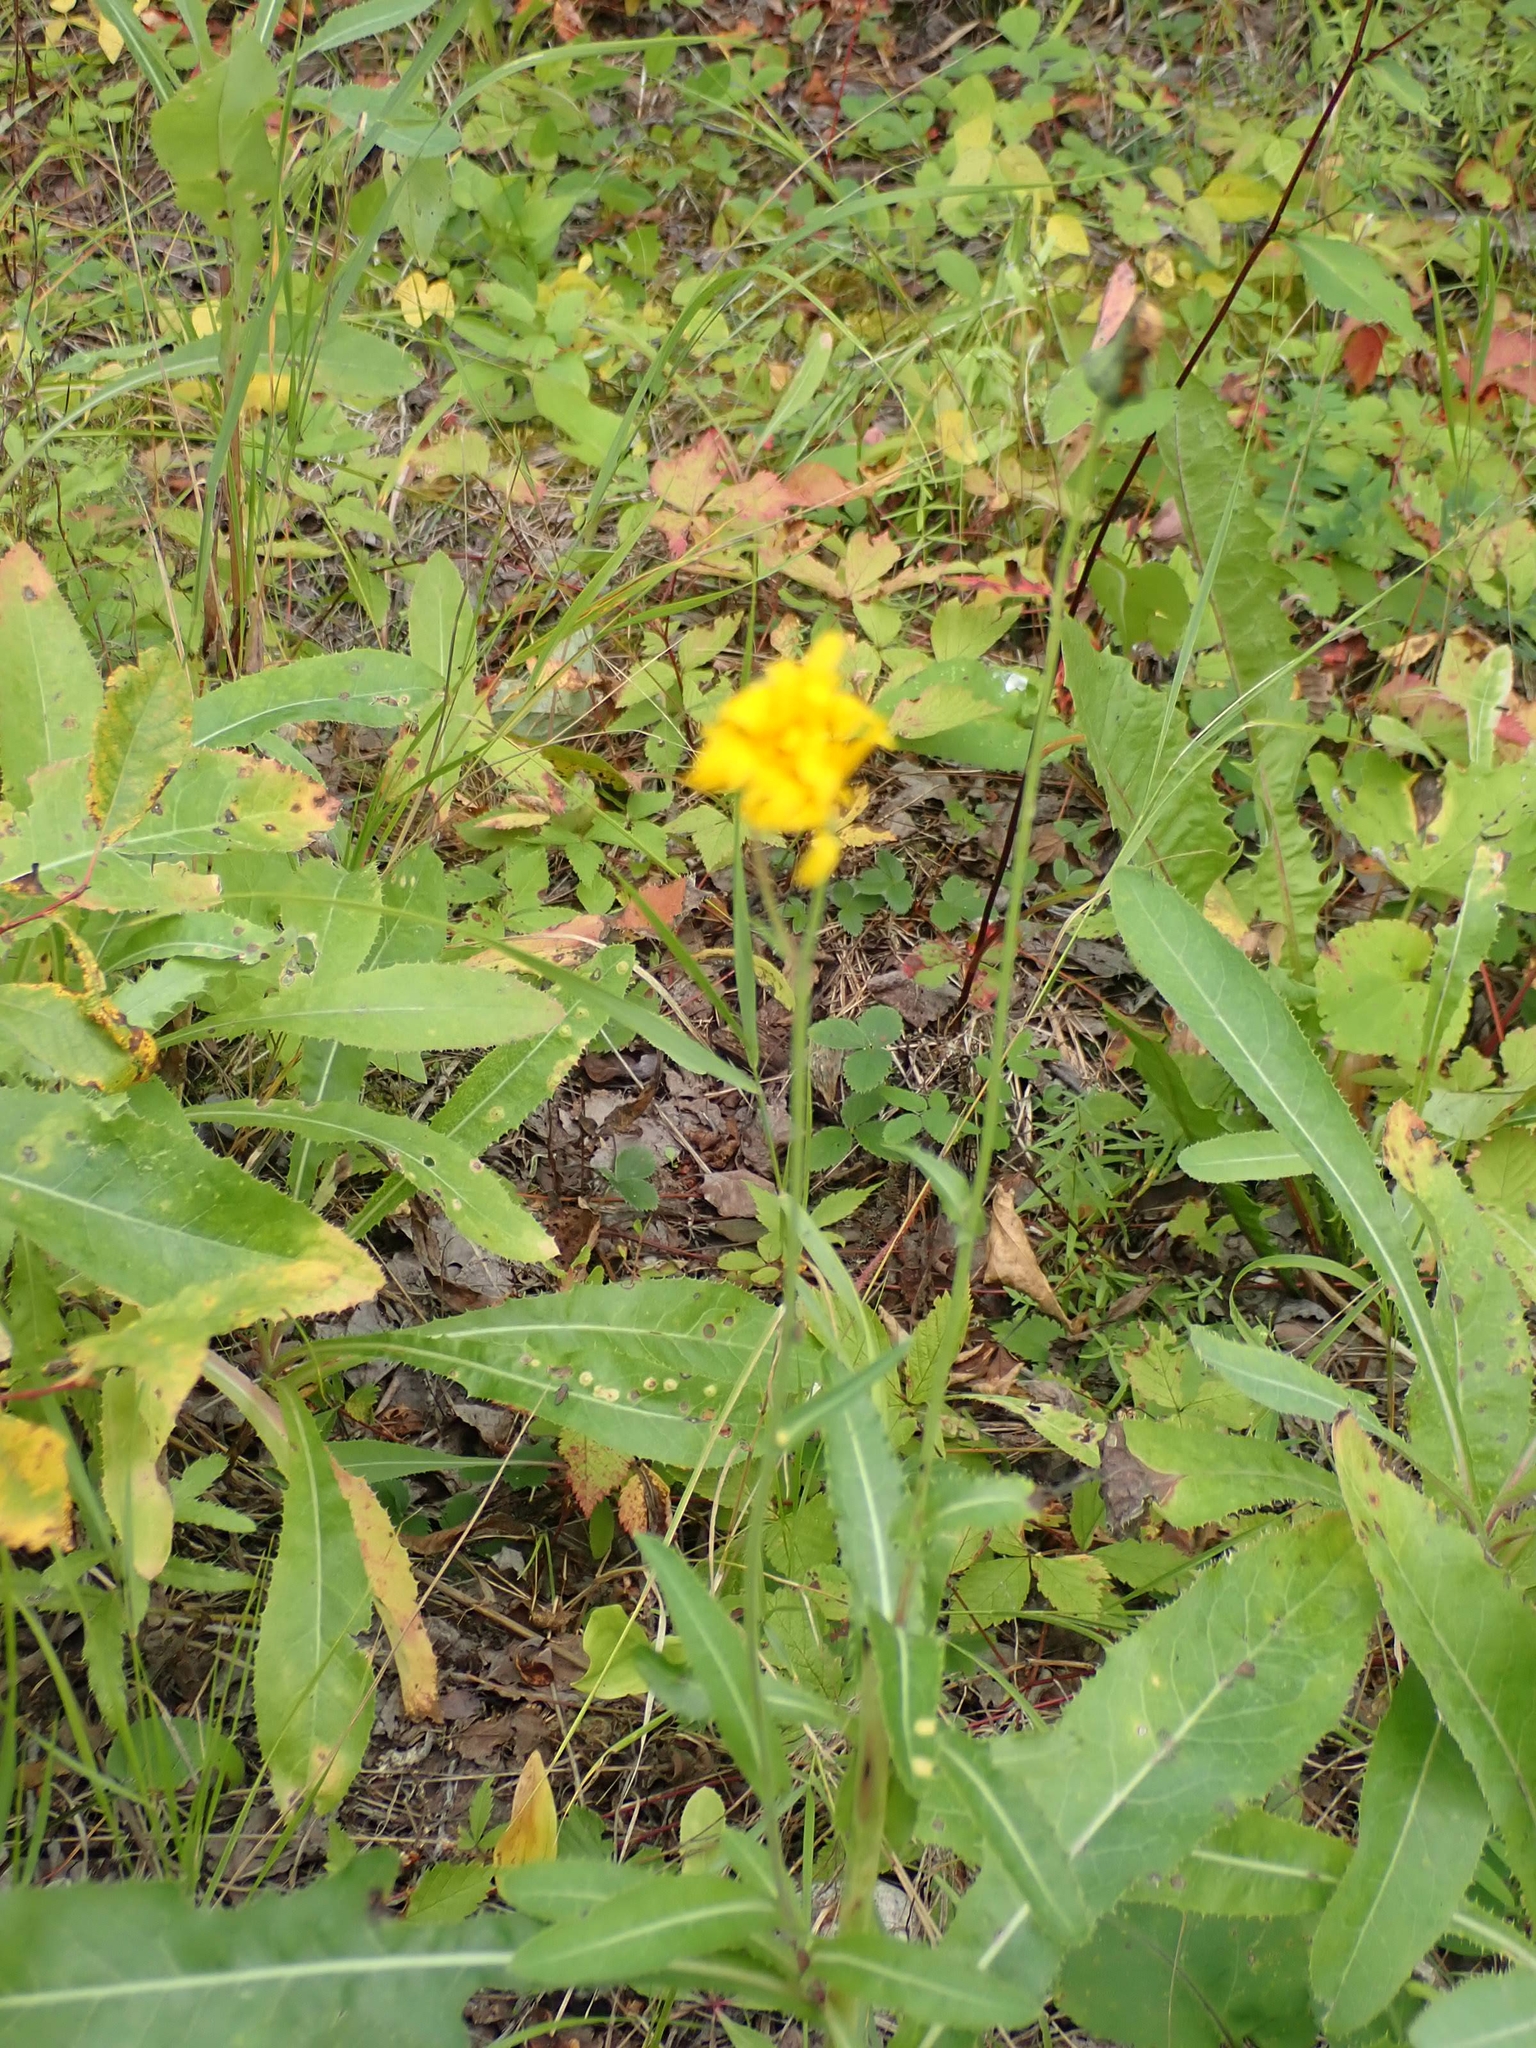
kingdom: Plantae
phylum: Tracheophyta
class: Magnoliopsida
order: Asterales
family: Asteraceae
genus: Hieracium
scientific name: Hieracium umbellatum
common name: Northern hawkweed
